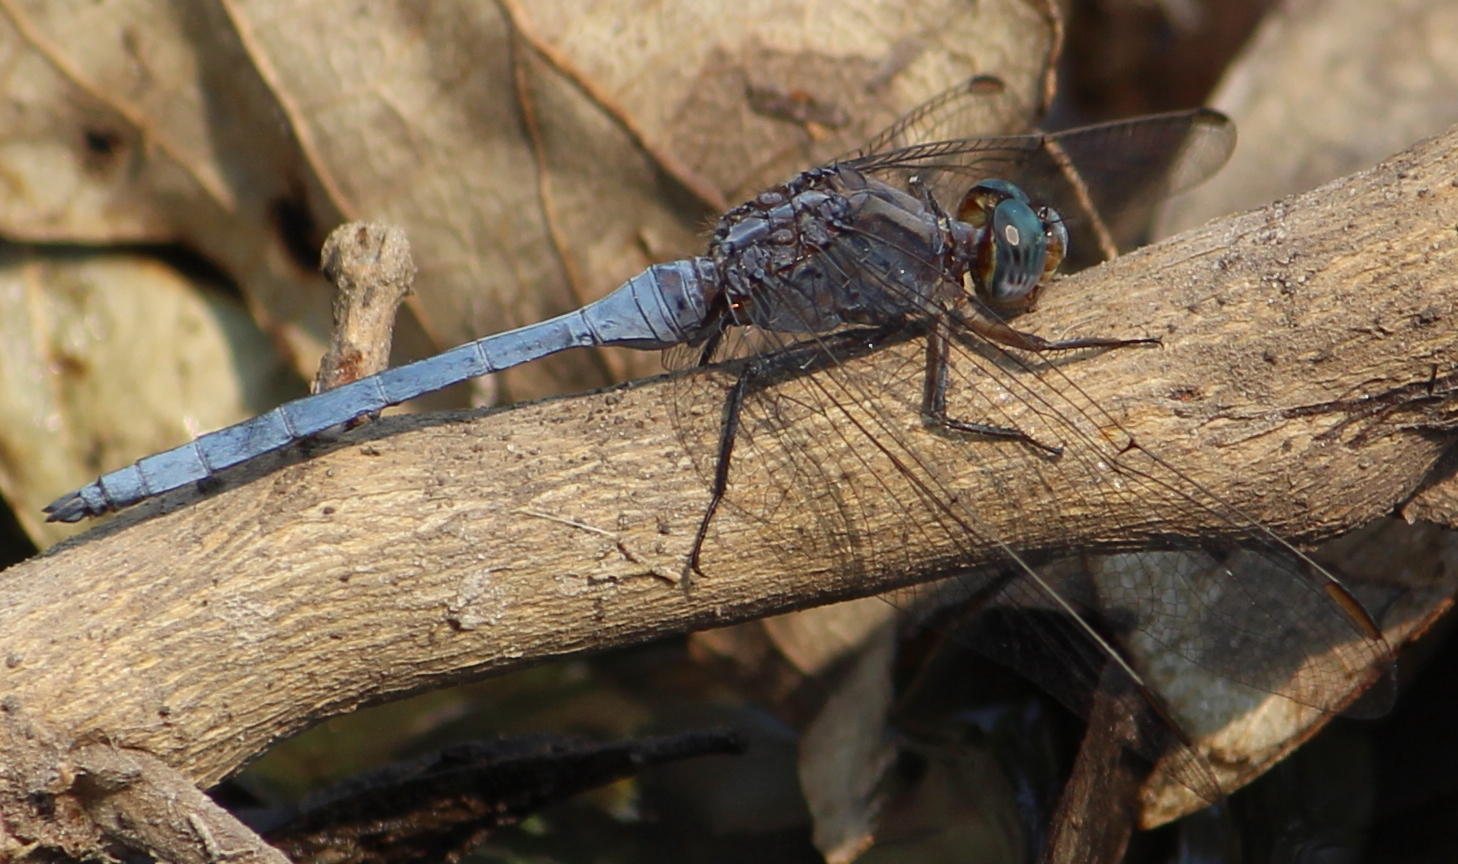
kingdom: Animalia
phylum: Arthropoda
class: Insecta
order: Odonata
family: Libellulidae
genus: Orthetrum
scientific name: Orthetrum chrysostigma
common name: Epaulet skimmer
